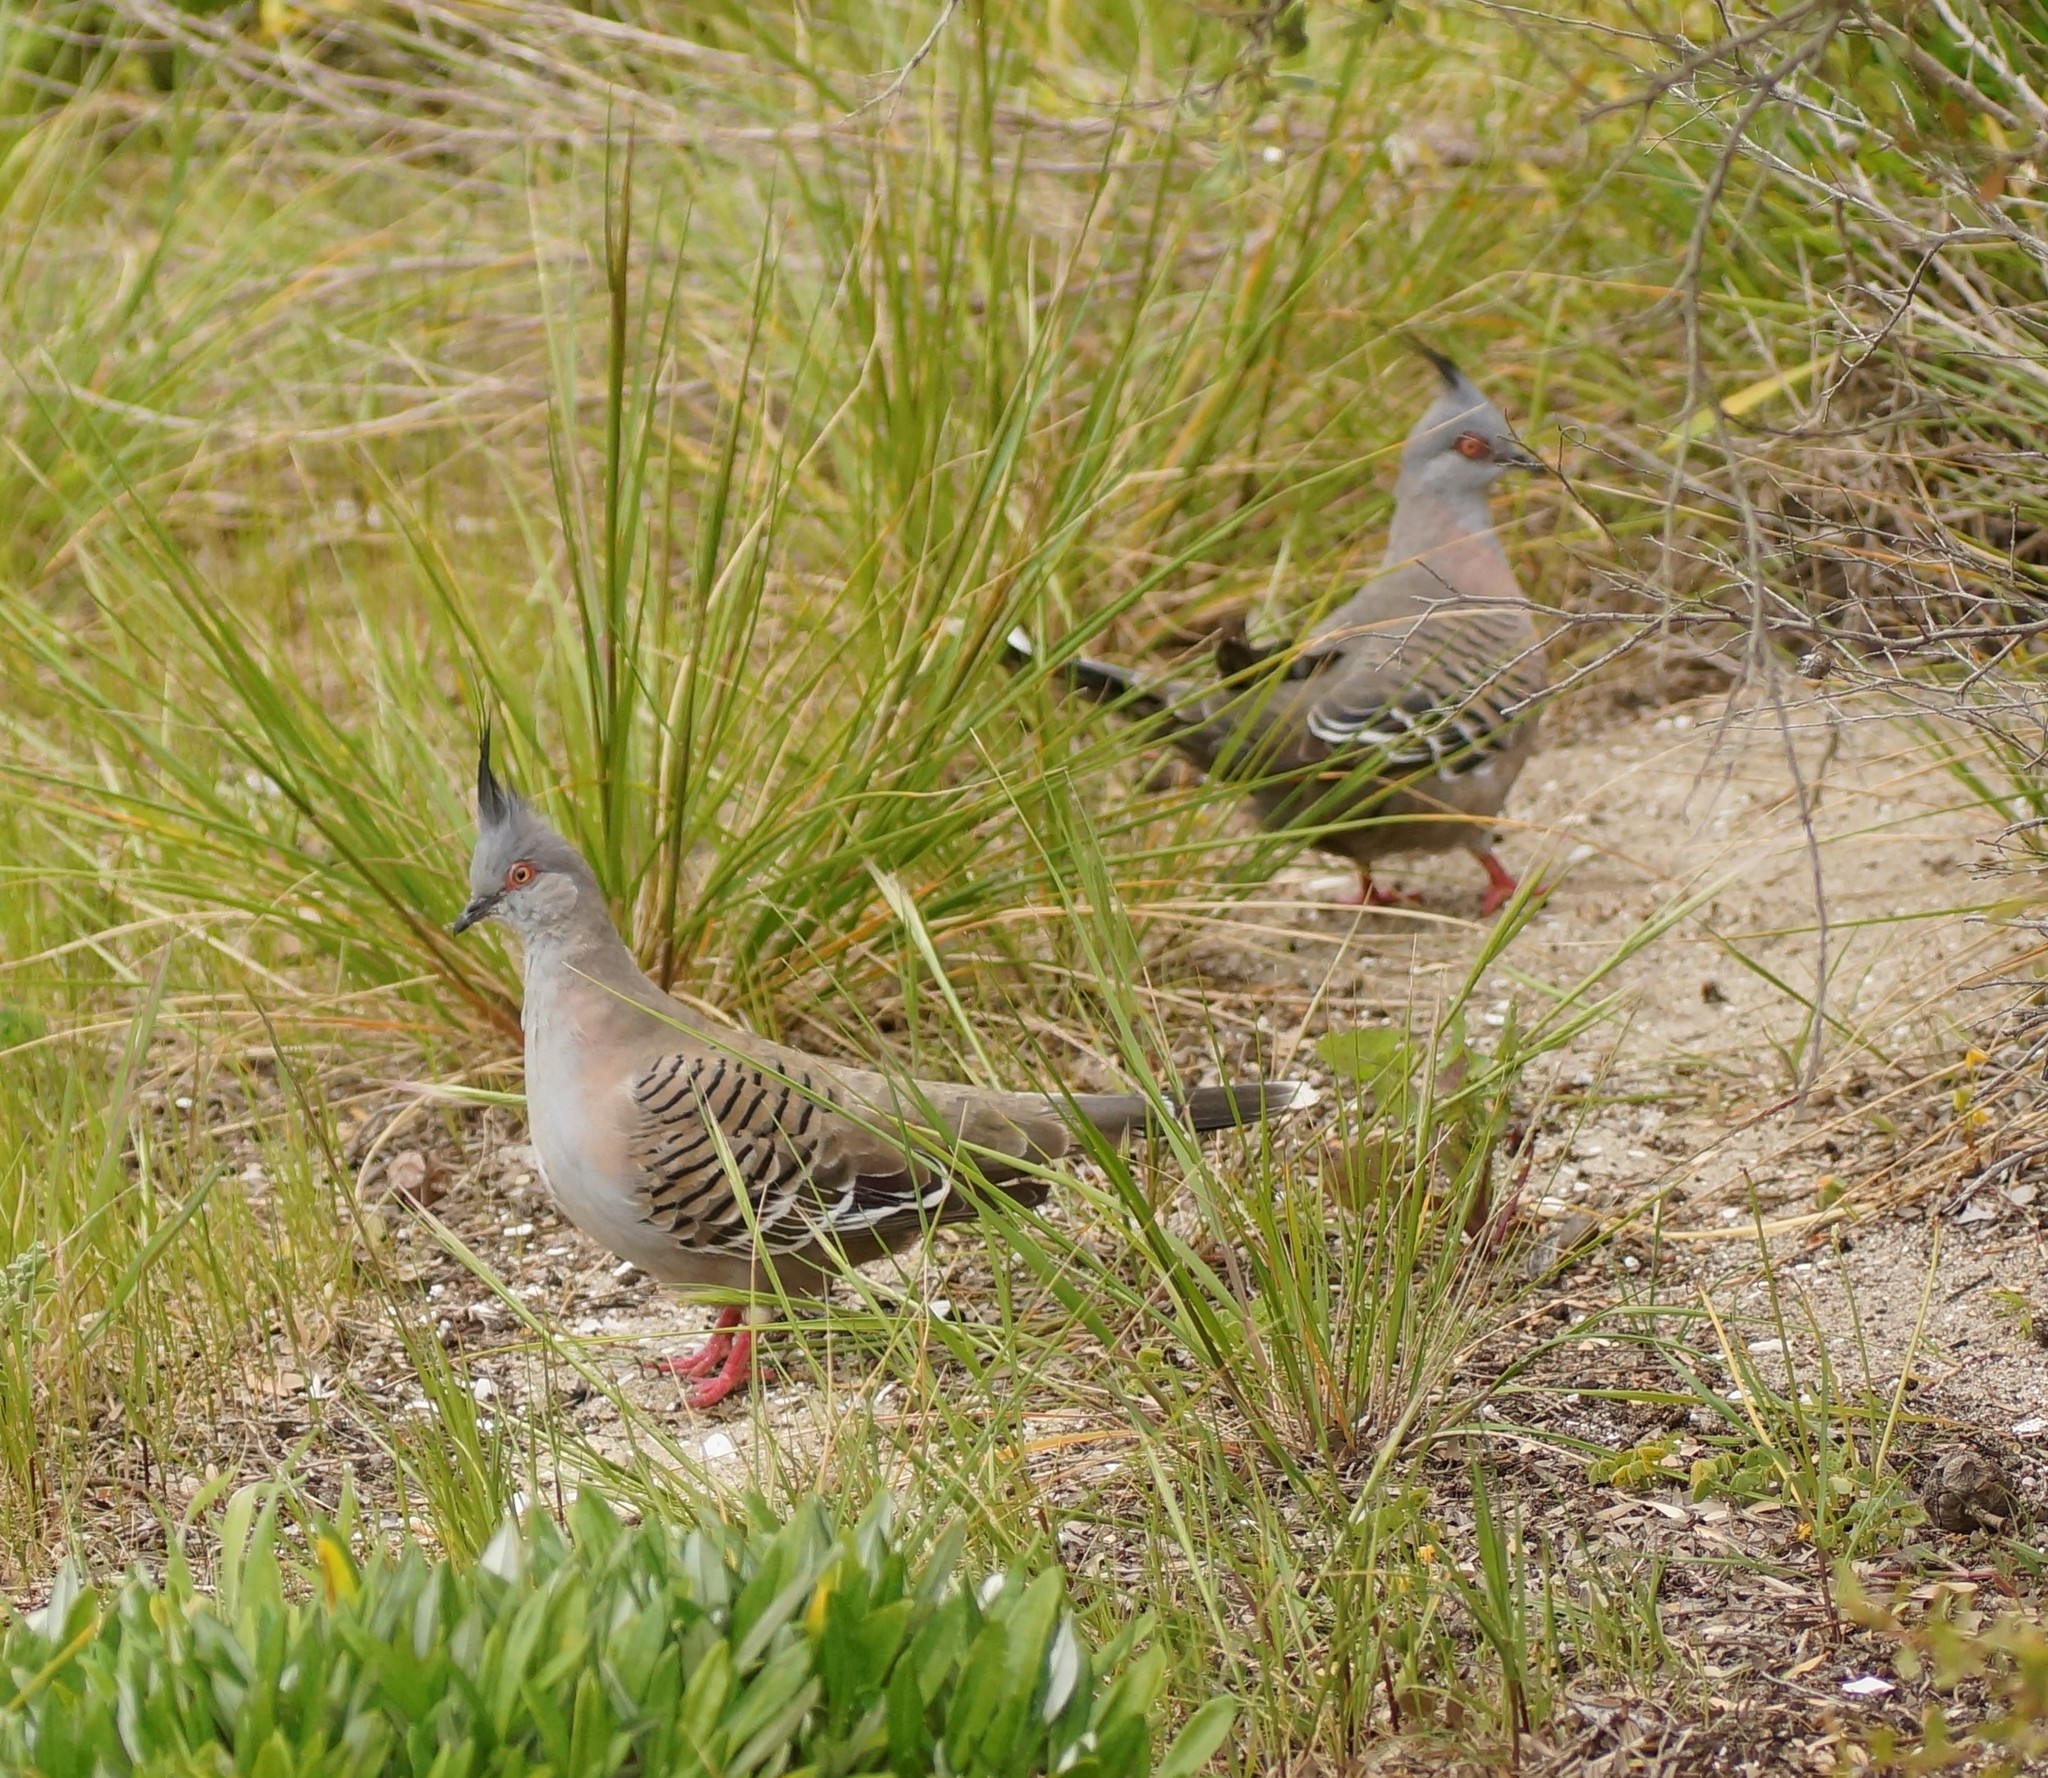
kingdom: Animalia
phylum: Chordata
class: Aves
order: Columbiformes
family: Columbidae
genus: Ocyphaps
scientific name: Ocyphaps lophotes
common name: Crested pigeon
